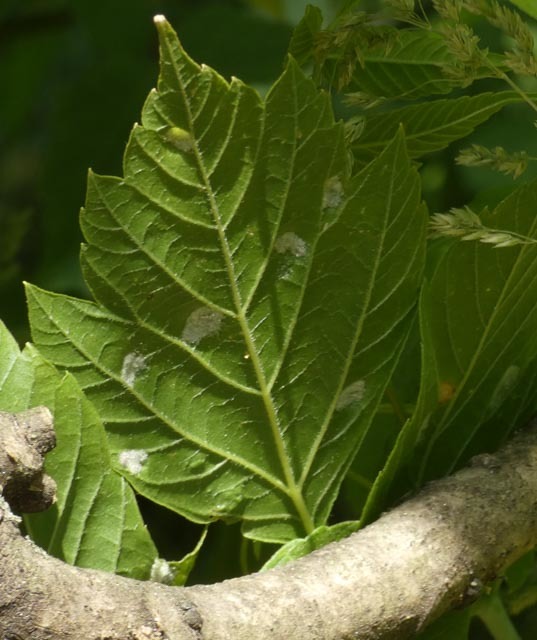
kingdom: Animalia
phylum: Arthropoda
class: Arachnida
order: Trombidiformes
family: Eriophyidae
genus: Aceria
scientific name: Aceria
